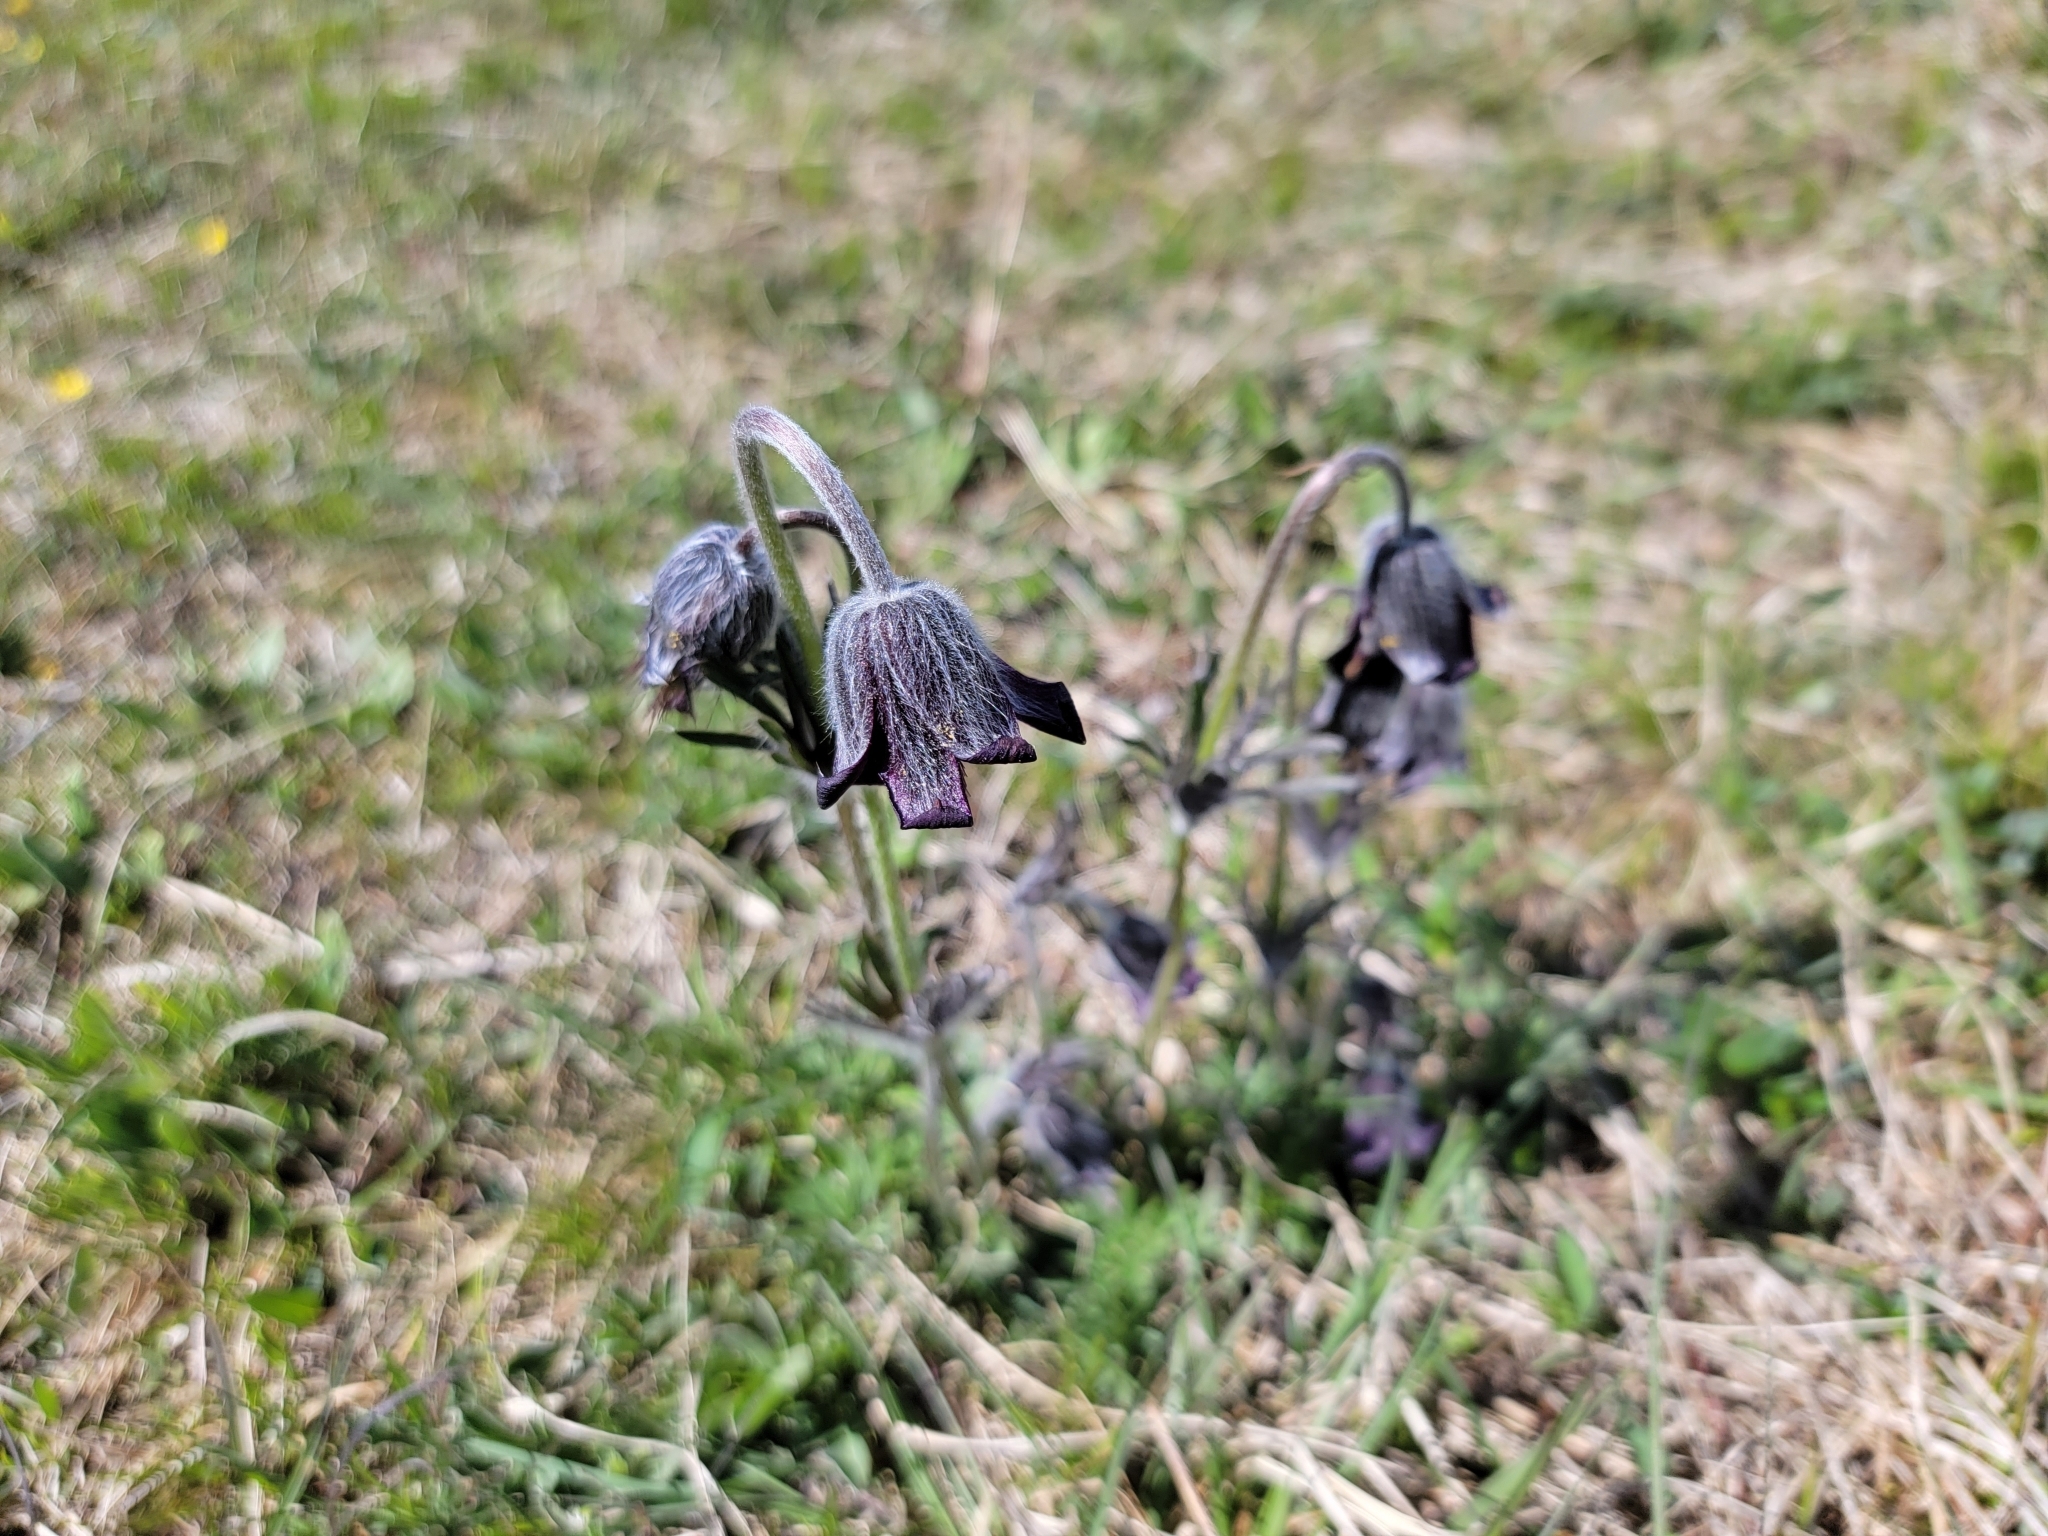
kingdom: Plantae
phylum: Tracheophyta
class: Magnoliopsida
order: Ranunculales
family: Ranunculaceae
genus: Pulsatilla
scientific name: Pulsatilla pratensis
